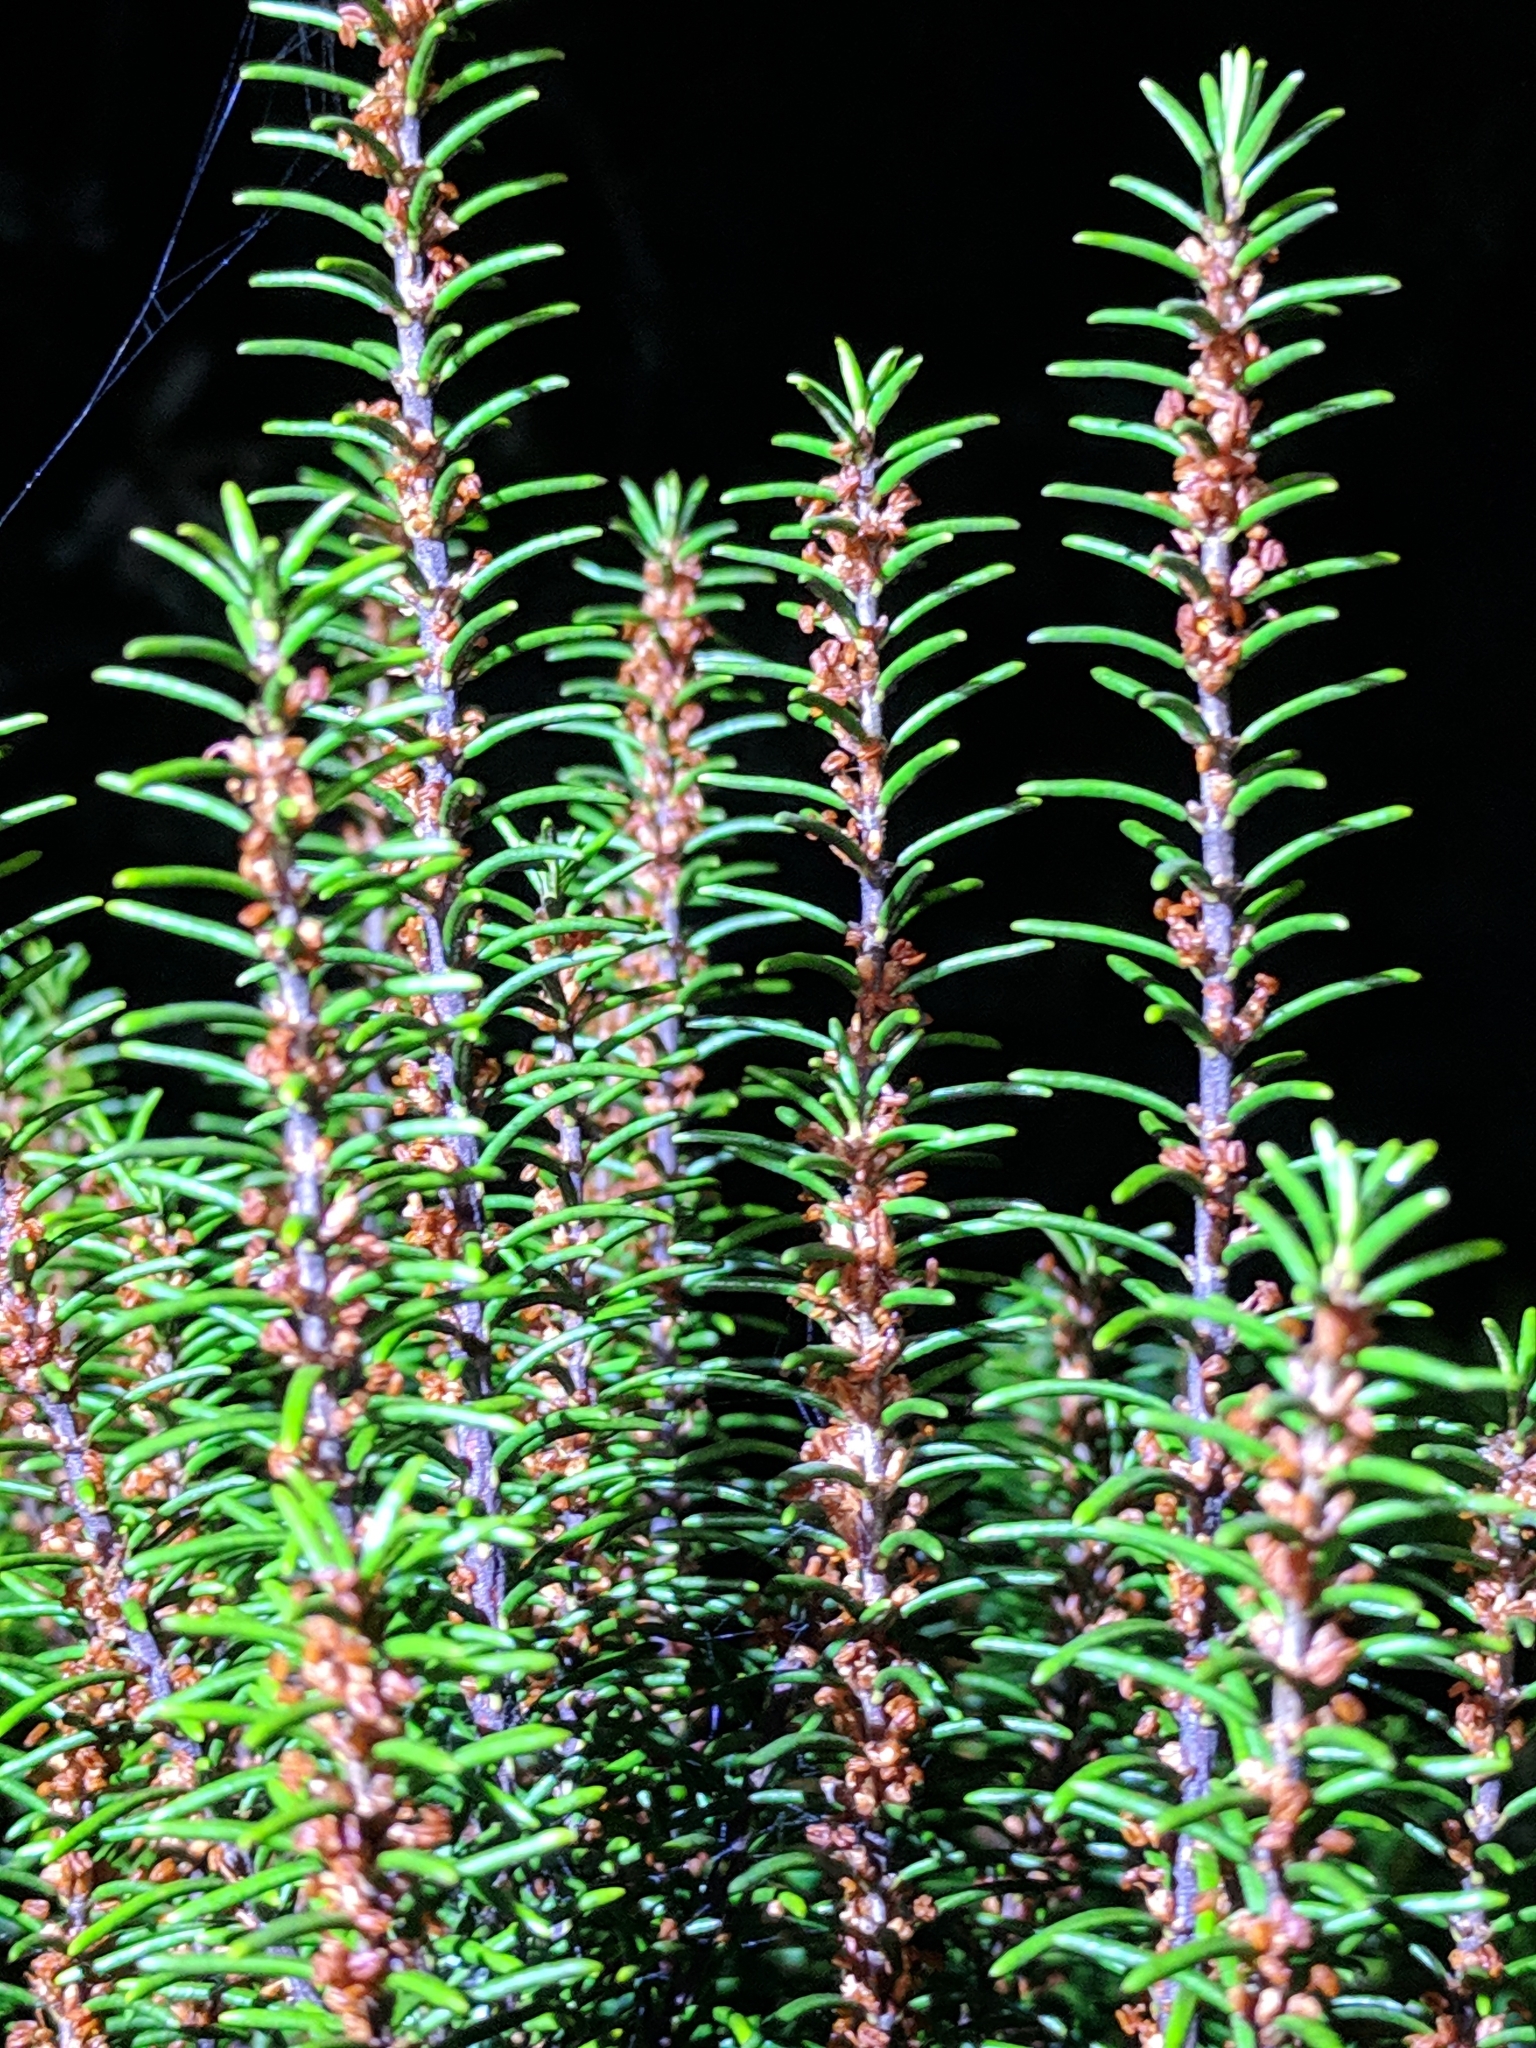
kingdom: Plantae
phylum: Tracheophyta
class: Magnoliopsida
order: Ericales
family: Ericaceae
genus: Ceratiola
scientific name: Ceratiola ericoides
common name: Sandhill-rosemary
